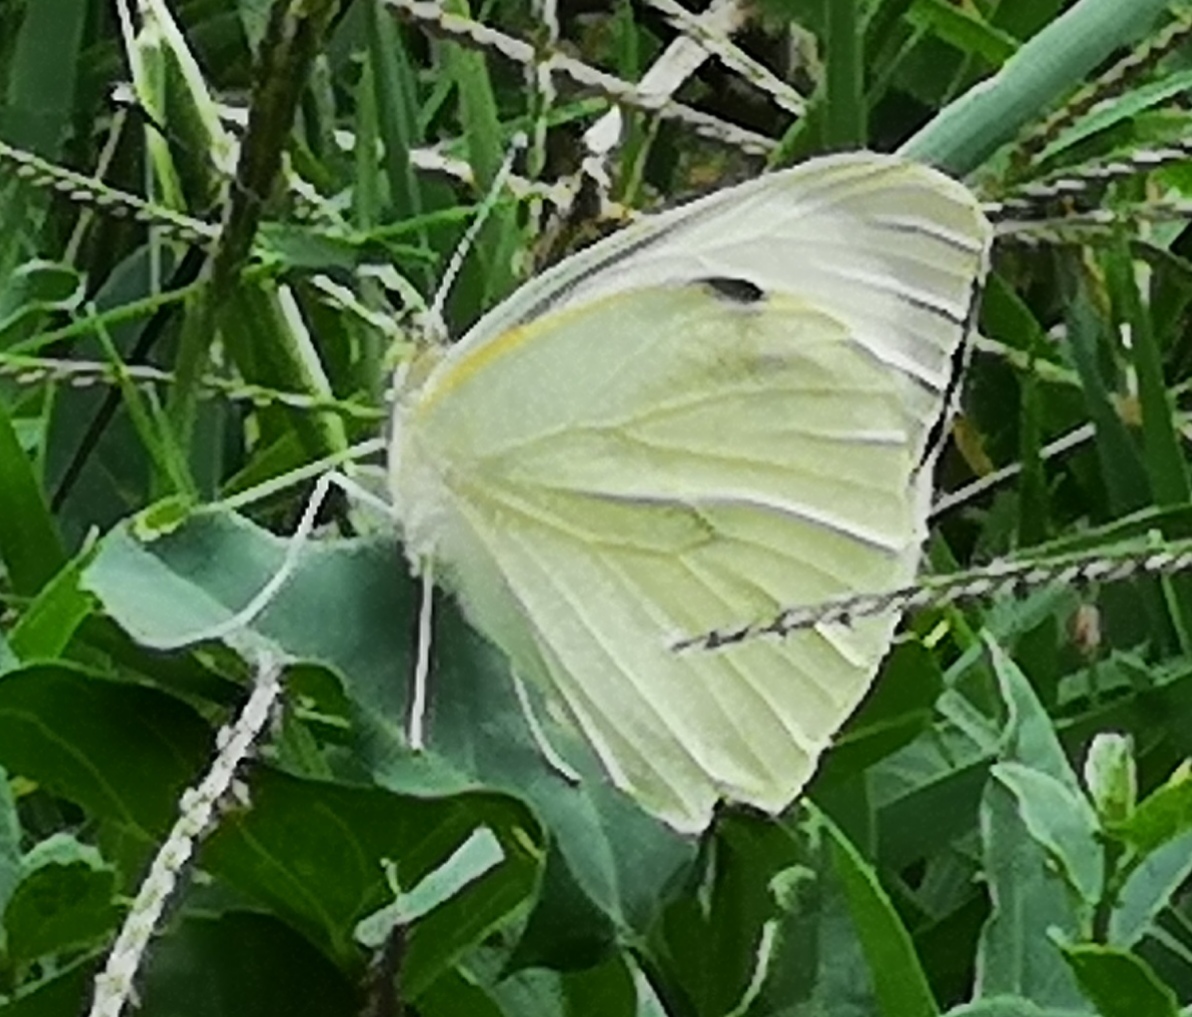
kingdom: Animalia
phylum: Arthropoda
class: Insecta
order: Lepidoptera
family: Pieridae
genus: Pieris
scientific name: Pieris brassicae
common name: Large white
